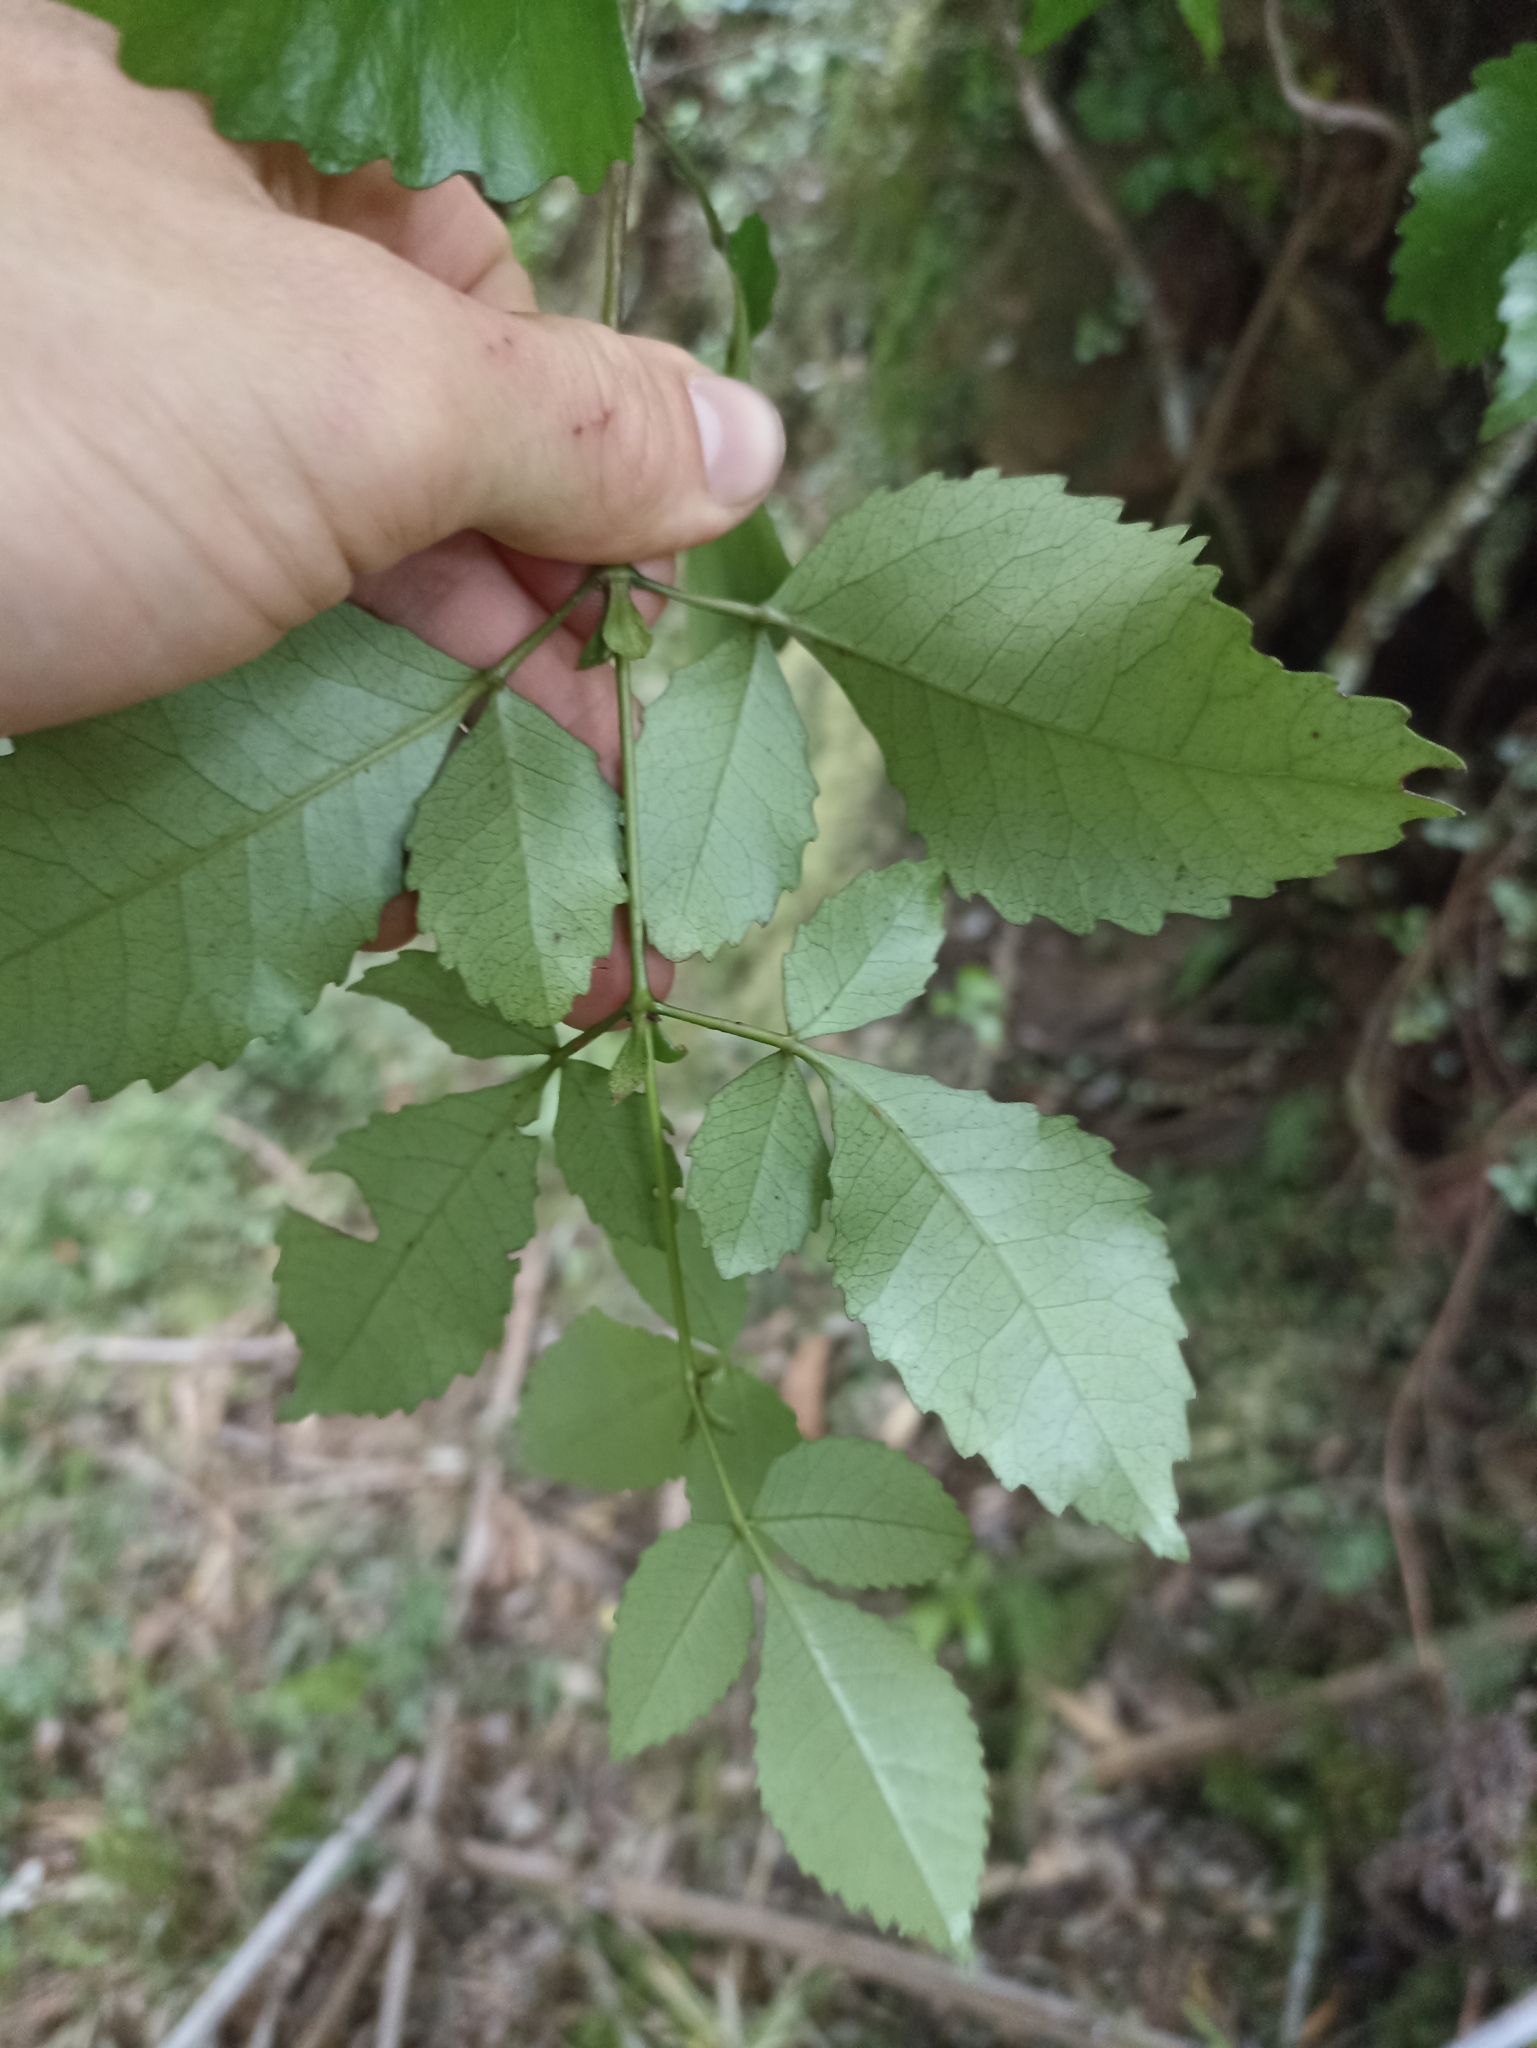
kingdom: Plantae
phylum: Tracheophyta
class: Magnoliopsida
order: Oxalidales
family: Cunoniaceae
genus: Pterophylla
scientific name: Pterophylla racemosa
